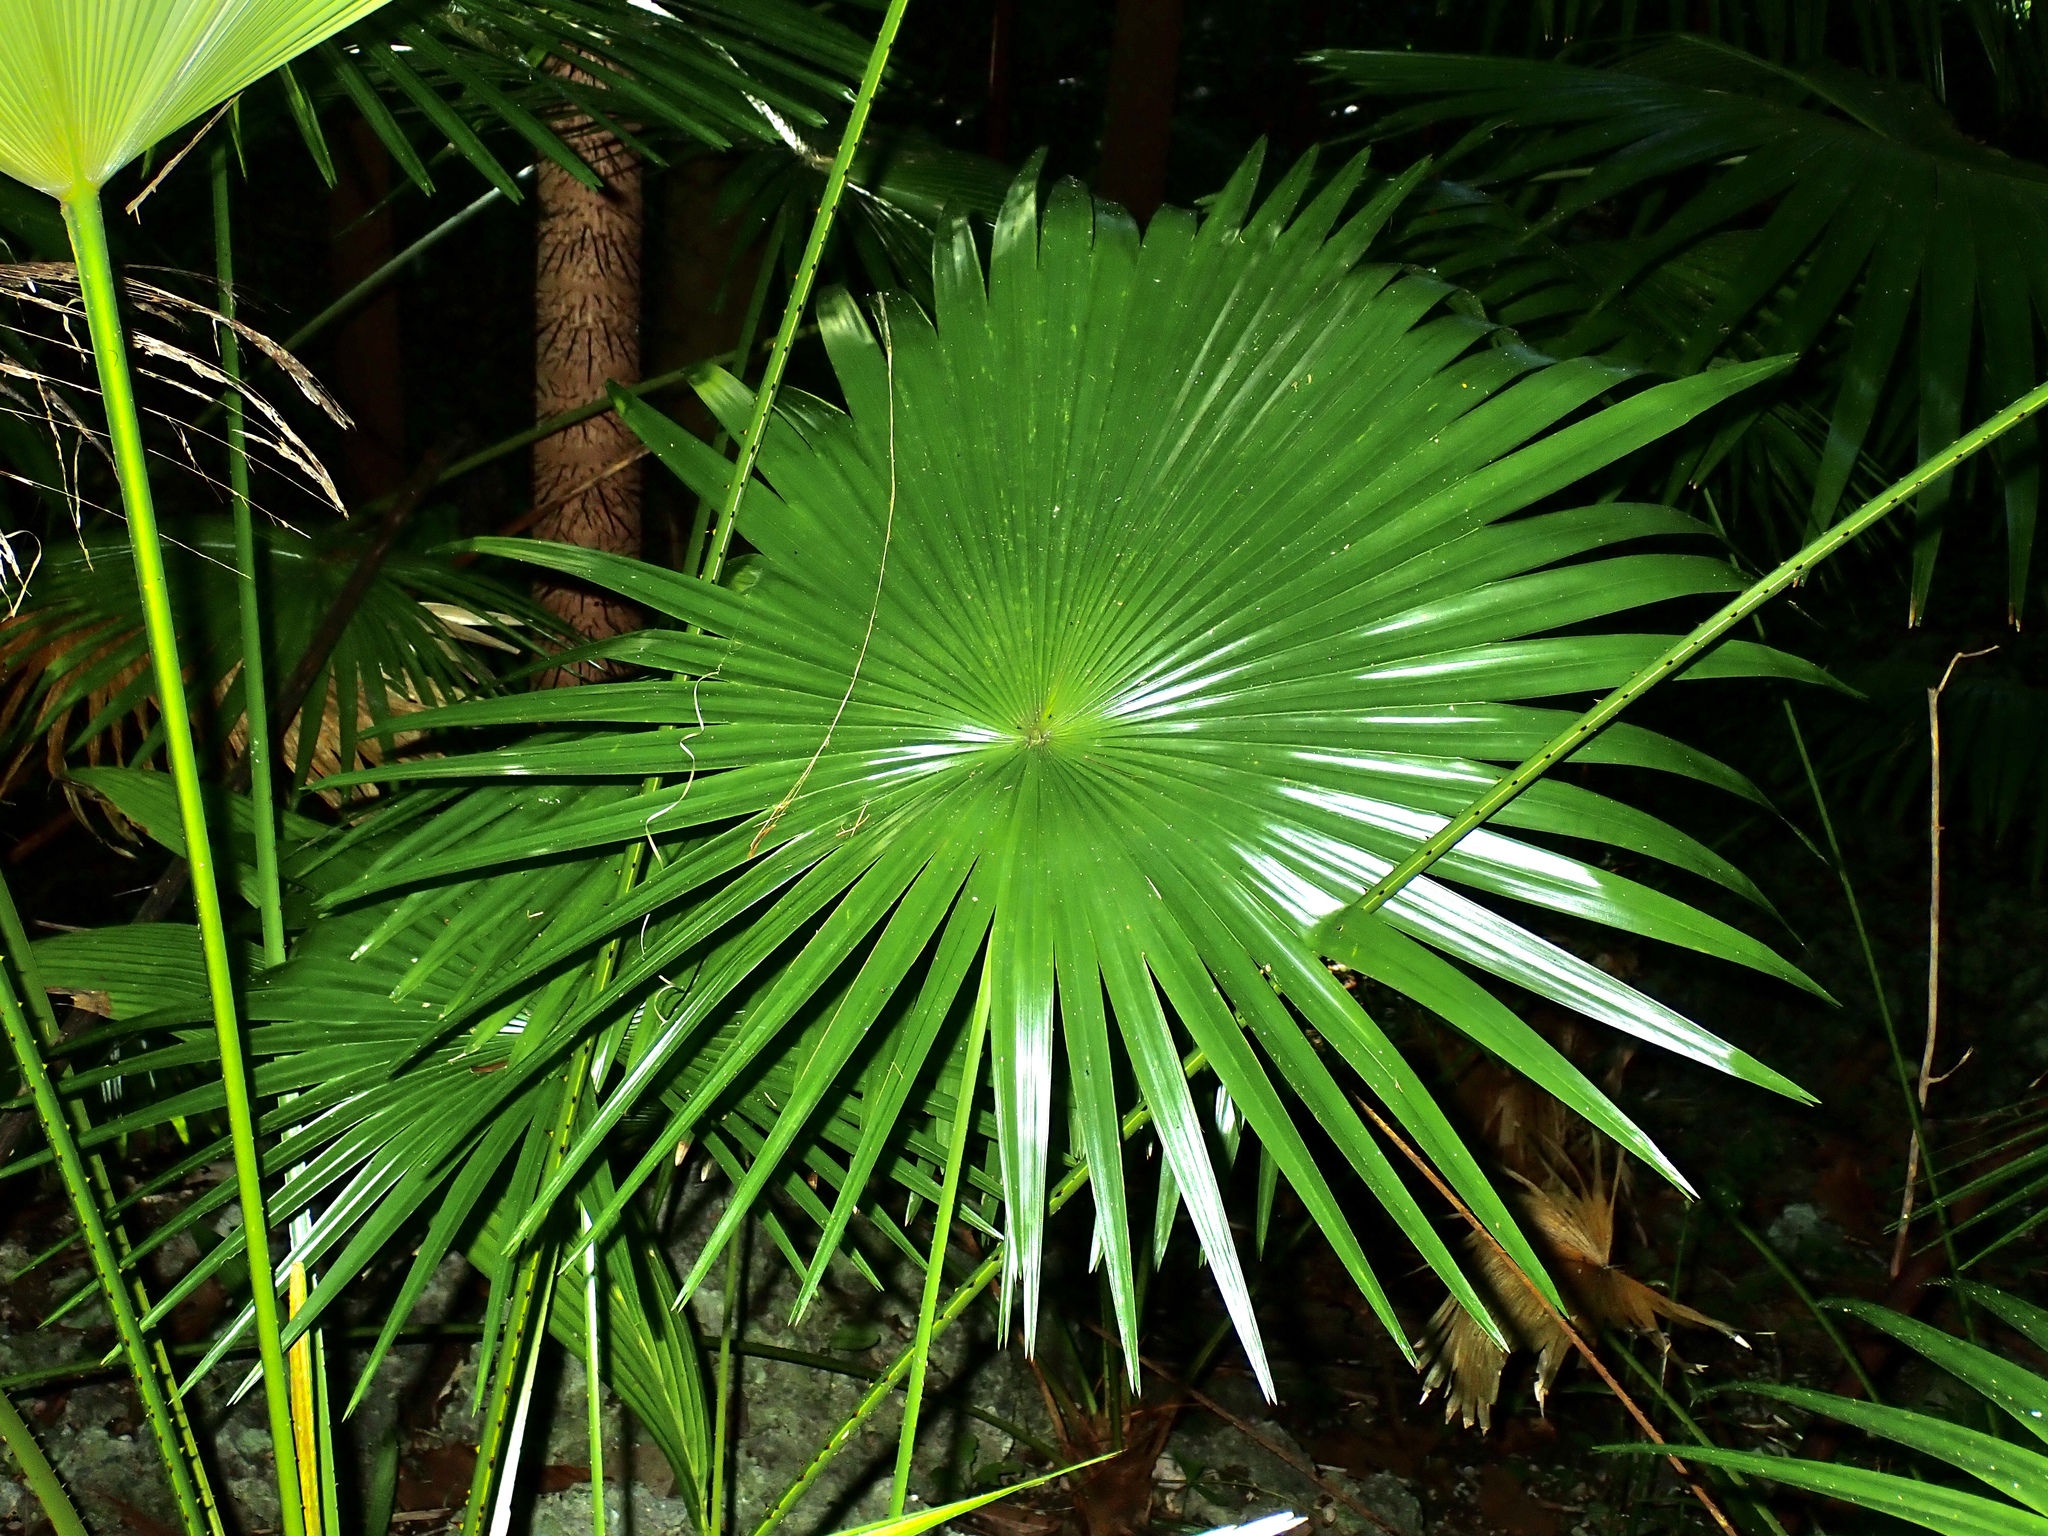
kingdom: Plantae
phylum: Tracheophyta
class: Liliopsida
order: Arecales
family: Arecaceae
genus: Coccothrinax
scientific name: Coccothrinax barbadensis
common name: Thatch palm
